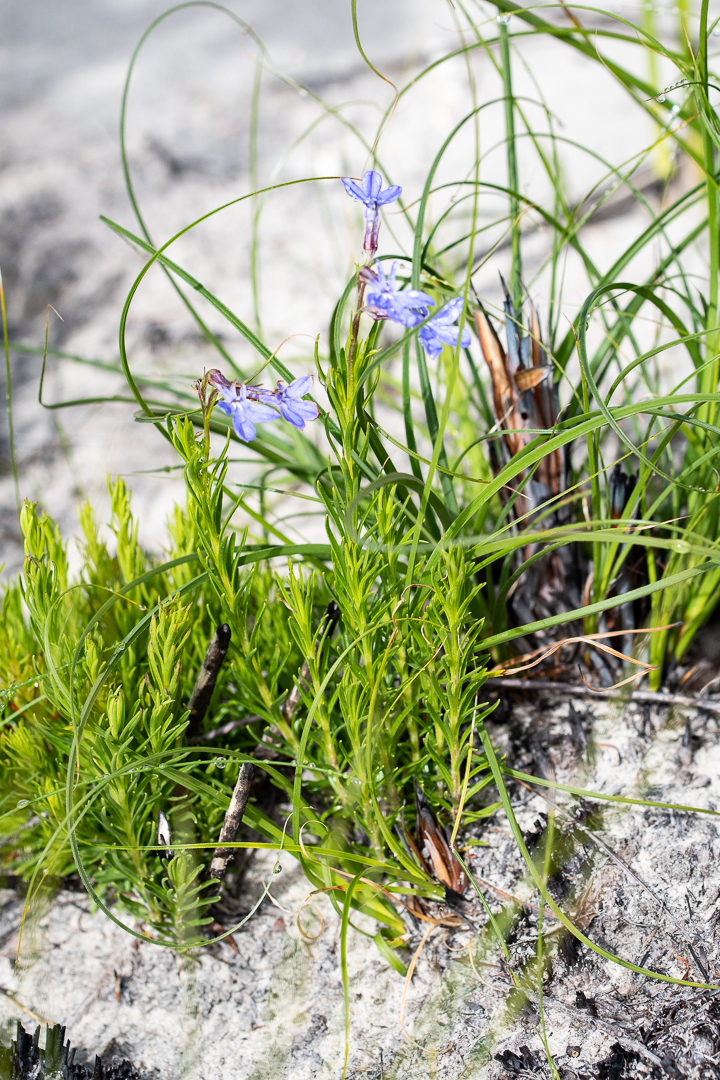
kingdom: Plantae
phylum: Tracheophyta
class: Magnoliopsida
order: Asterales
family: Campanulaceae
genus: Lobelia
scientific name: Lobelia pinifolia
